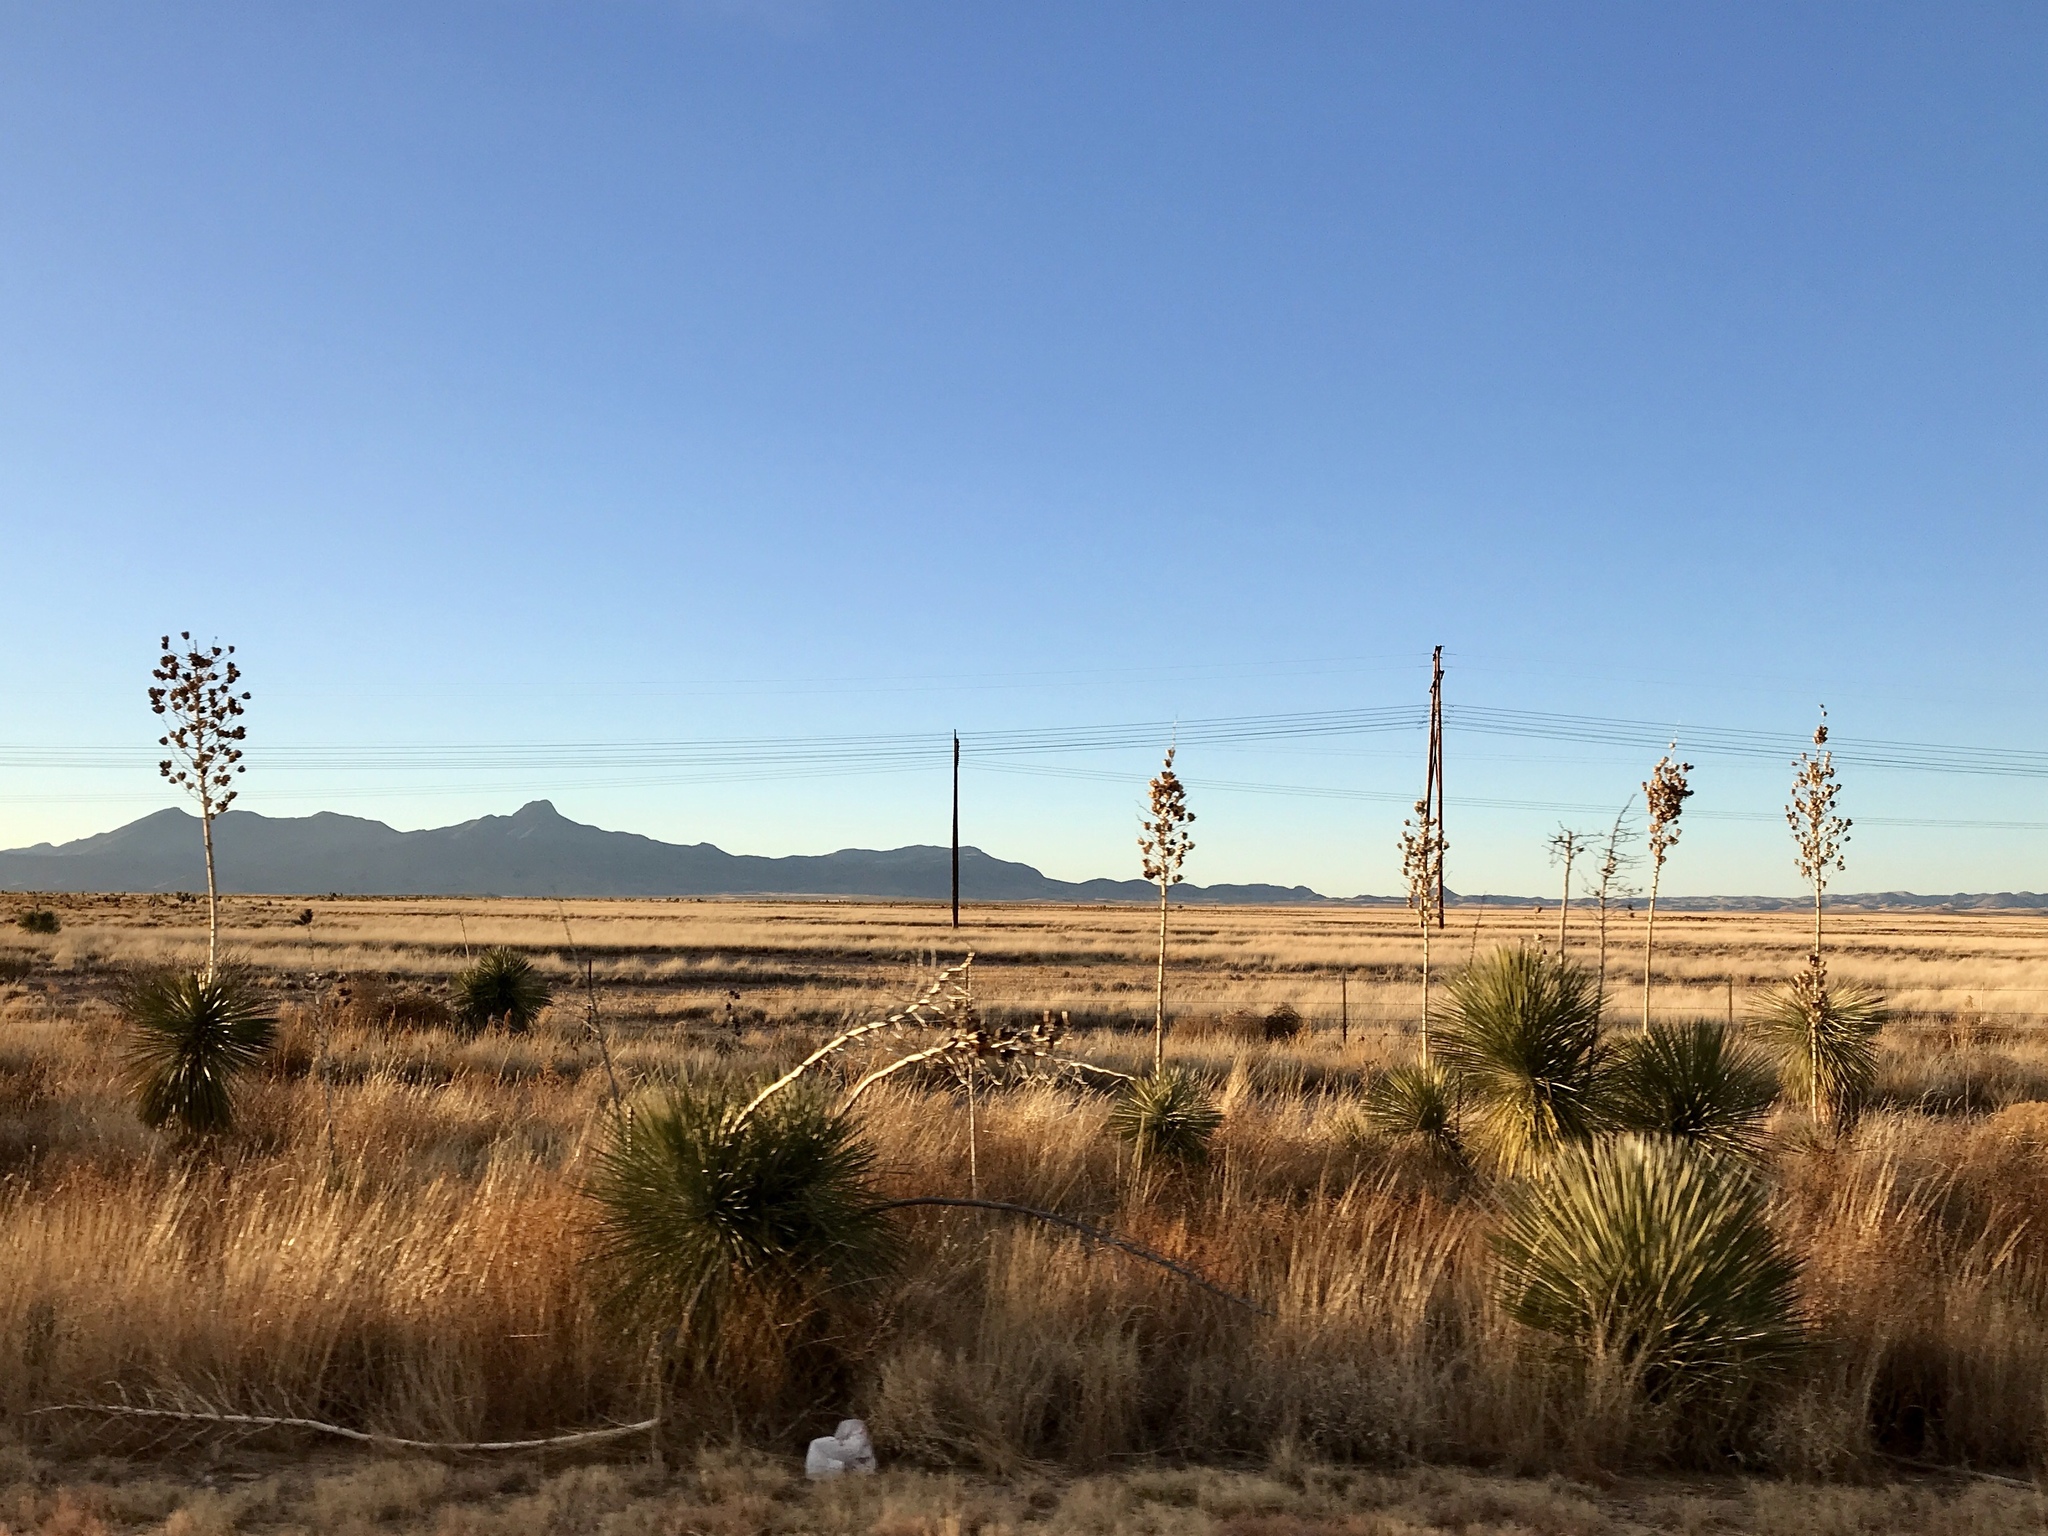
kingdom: Plantae
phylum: Tracheophyta
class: Liliopsida
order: Asparagales
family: Asparagaceae
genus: Yucca
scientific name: Yucca elata
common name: Palmella
